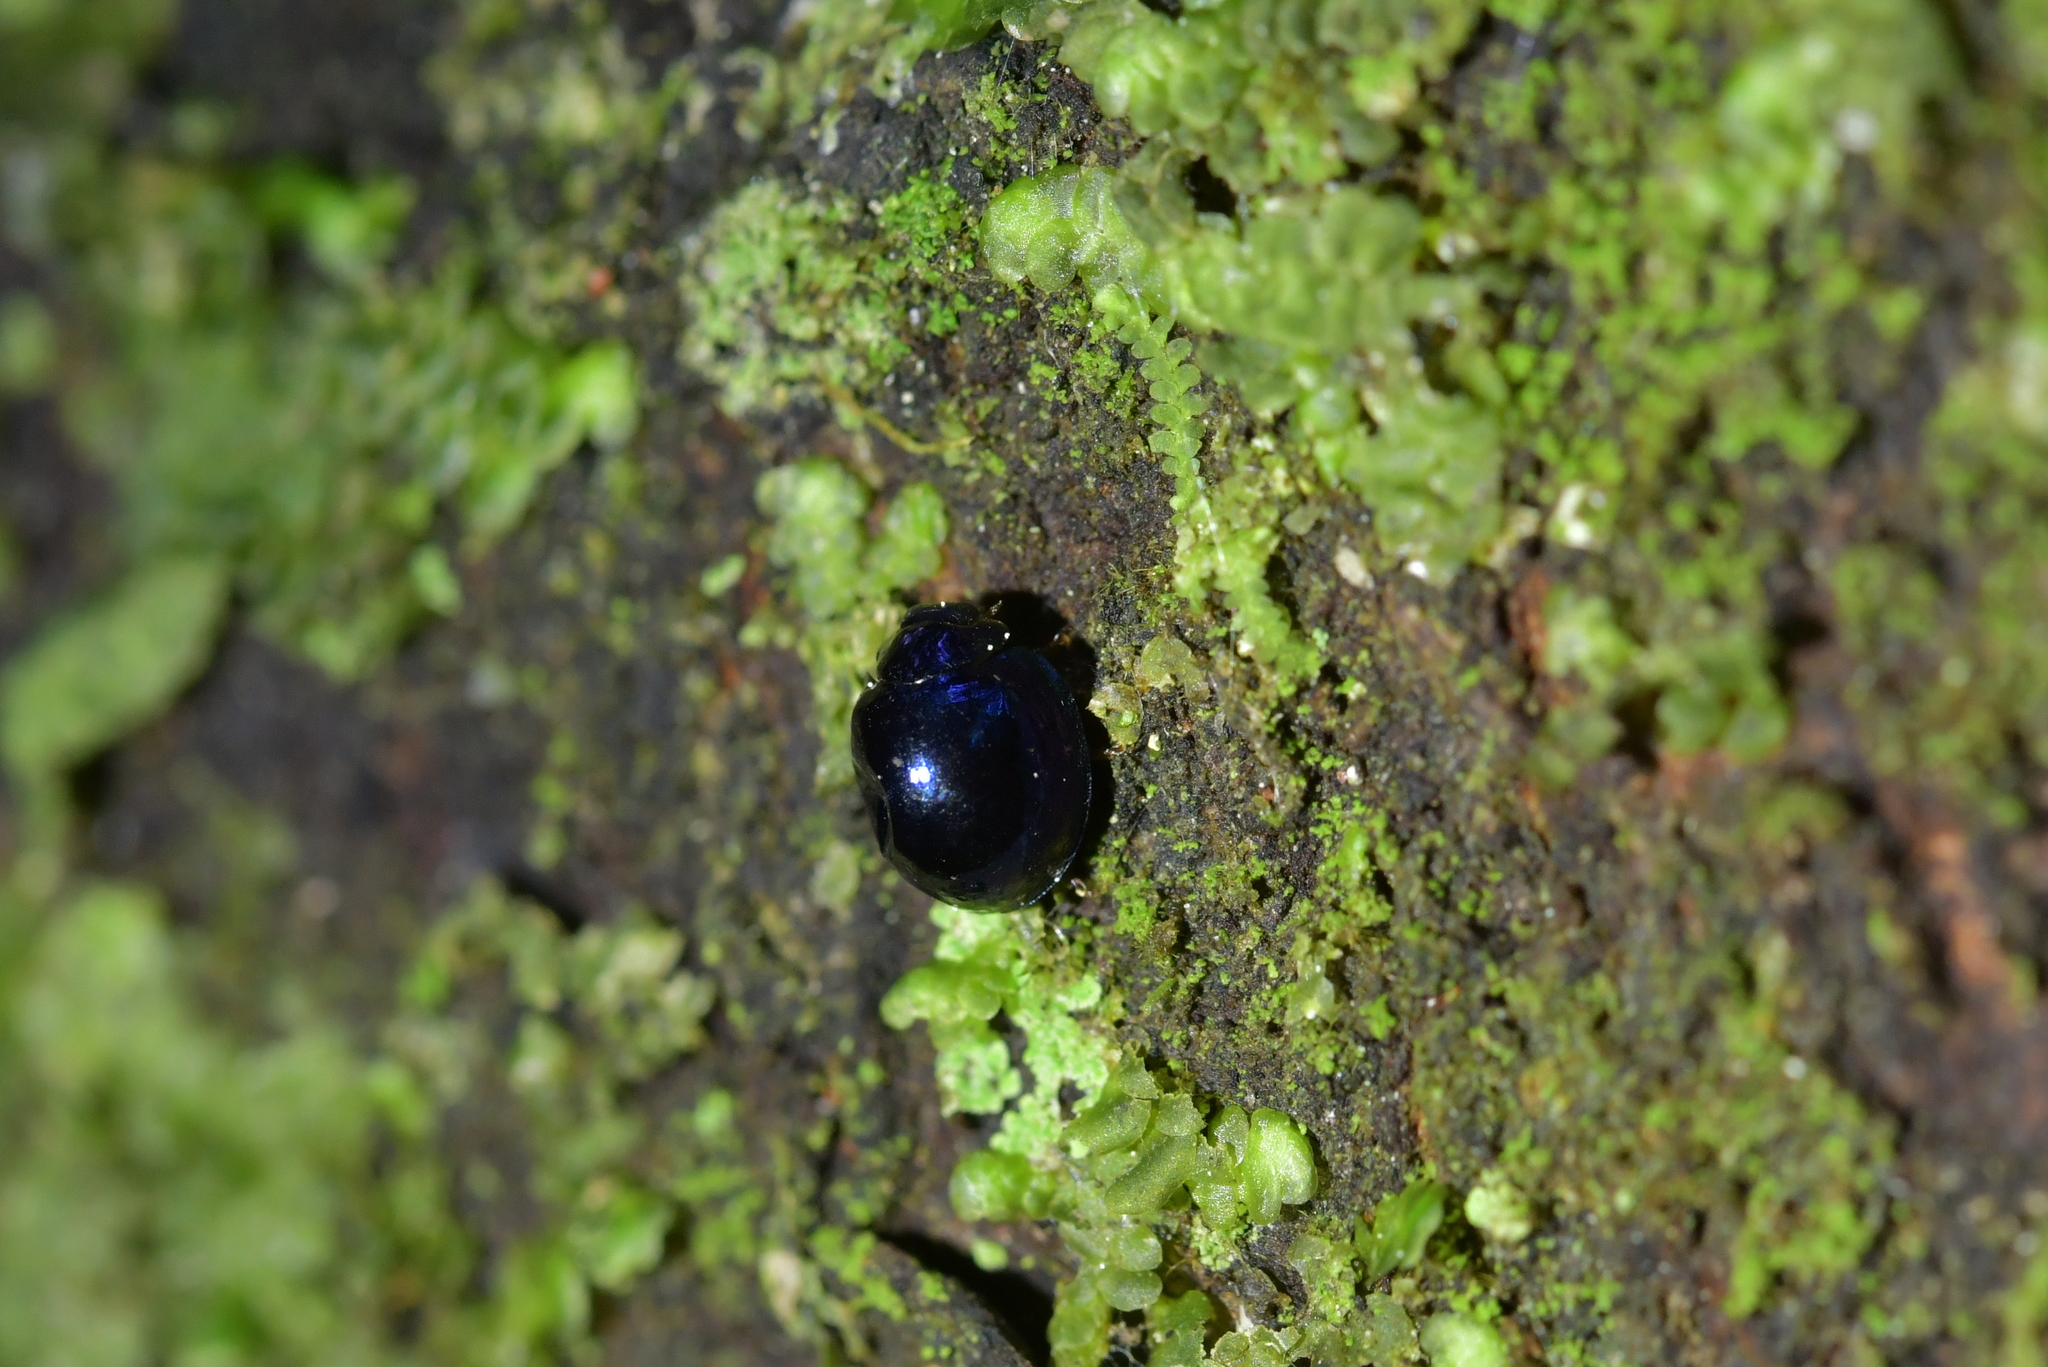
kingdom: Animalia
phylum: Arthropoda
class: Insecta
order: Coleoptera
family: Coccinellidae
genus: Halmus
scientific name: Halmus chalybeus
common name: Steel blue ladybird beetle
